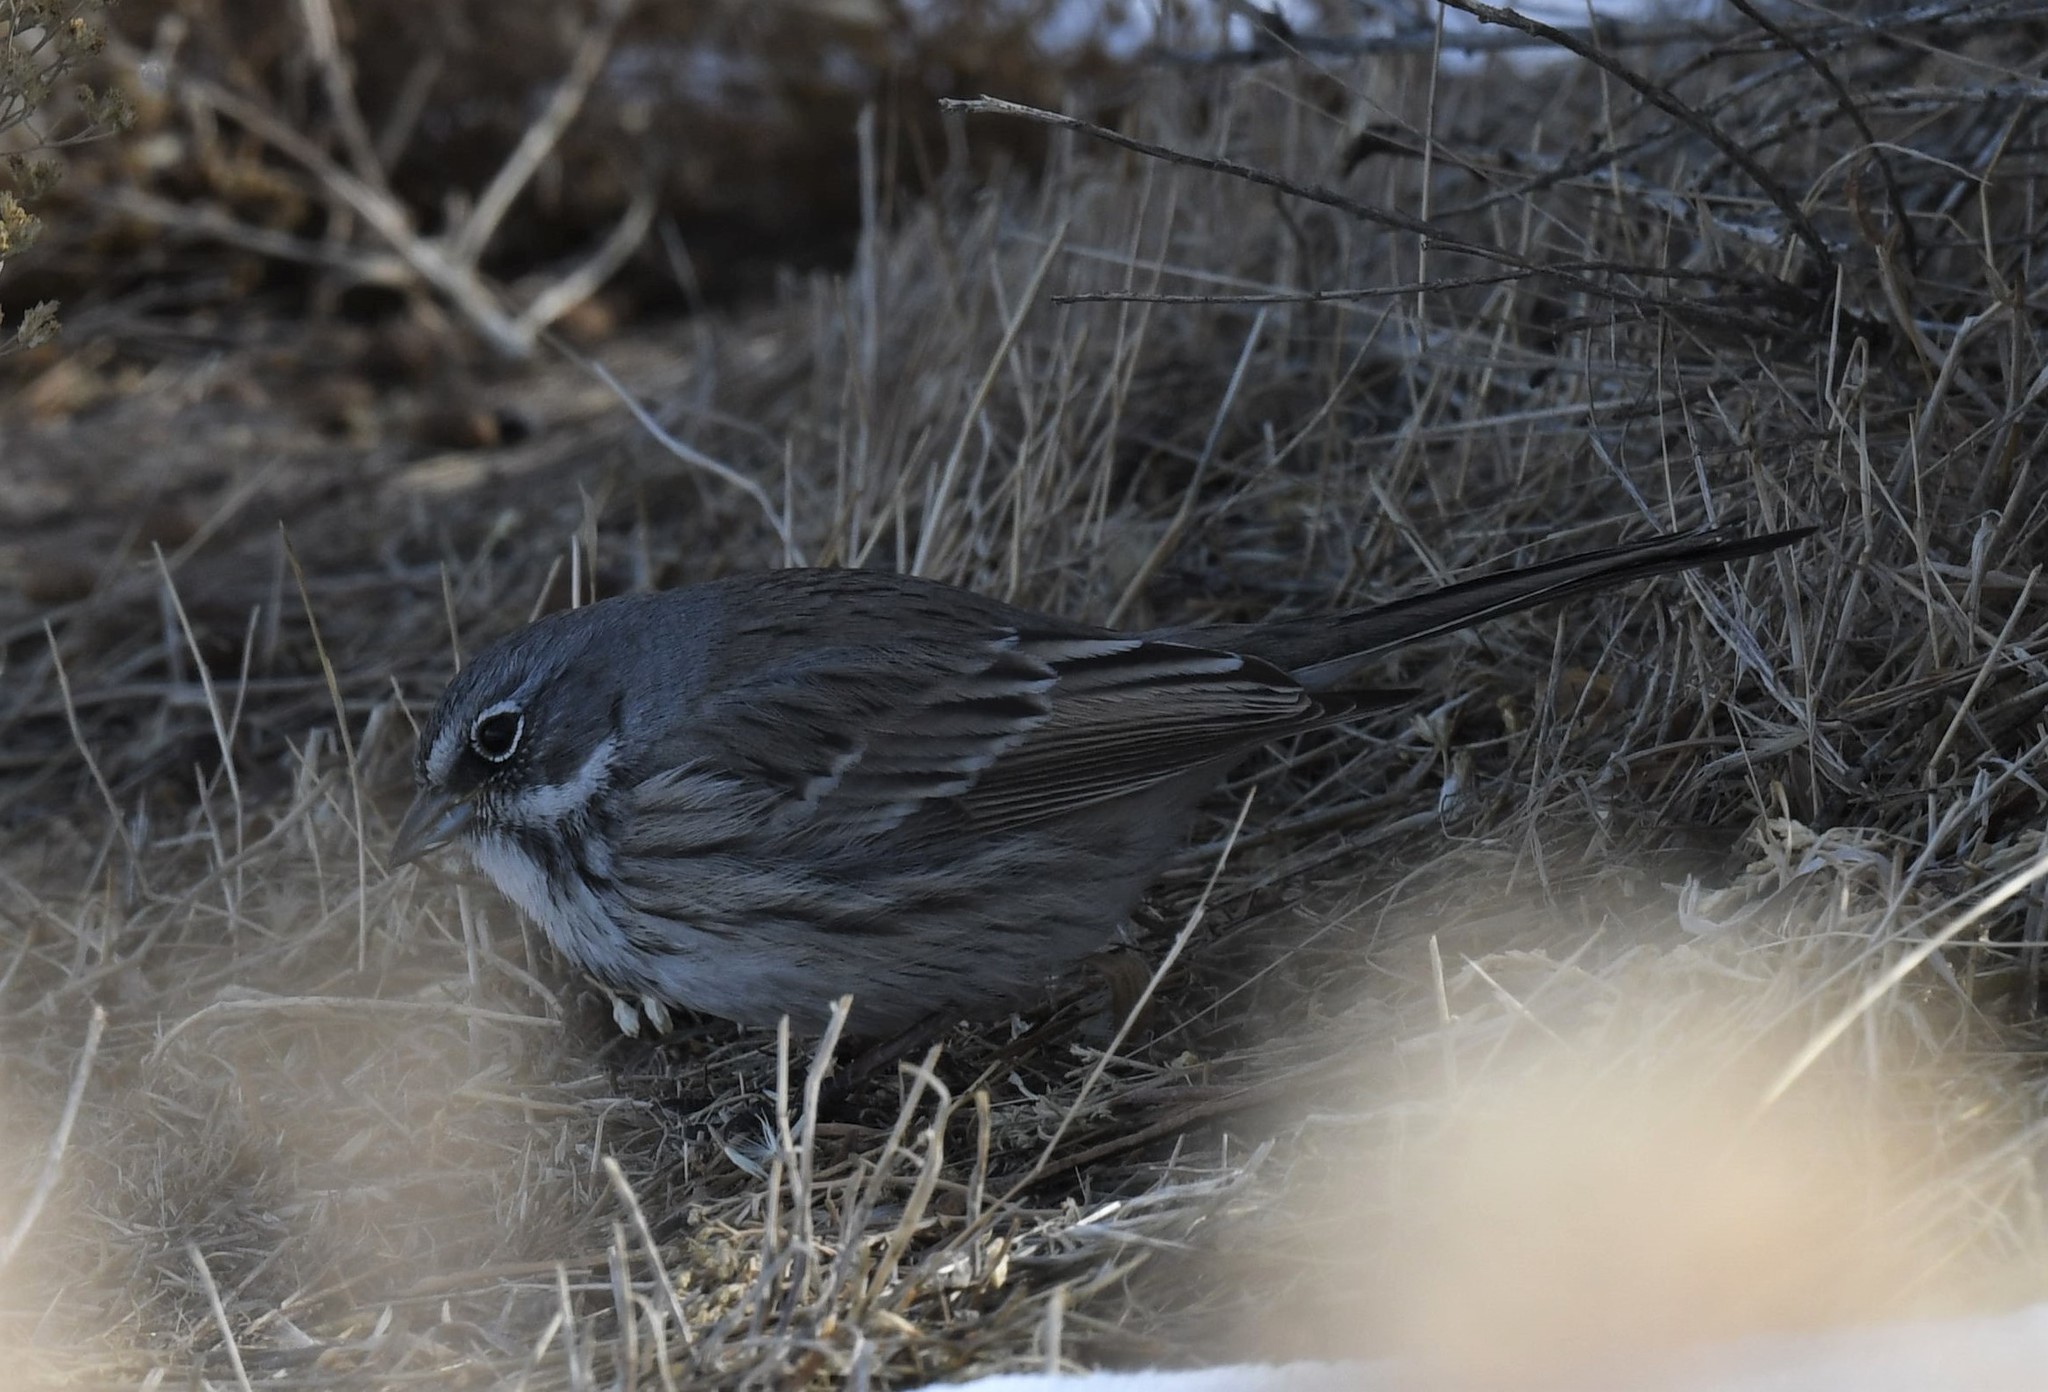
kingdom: Animalia
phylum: Chordata
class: Aves
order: Passeriformes
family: Passerellidae
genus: Artemisiospiza
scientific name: Artemisiospiza nevadensis
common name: Sagebrush sparrow
